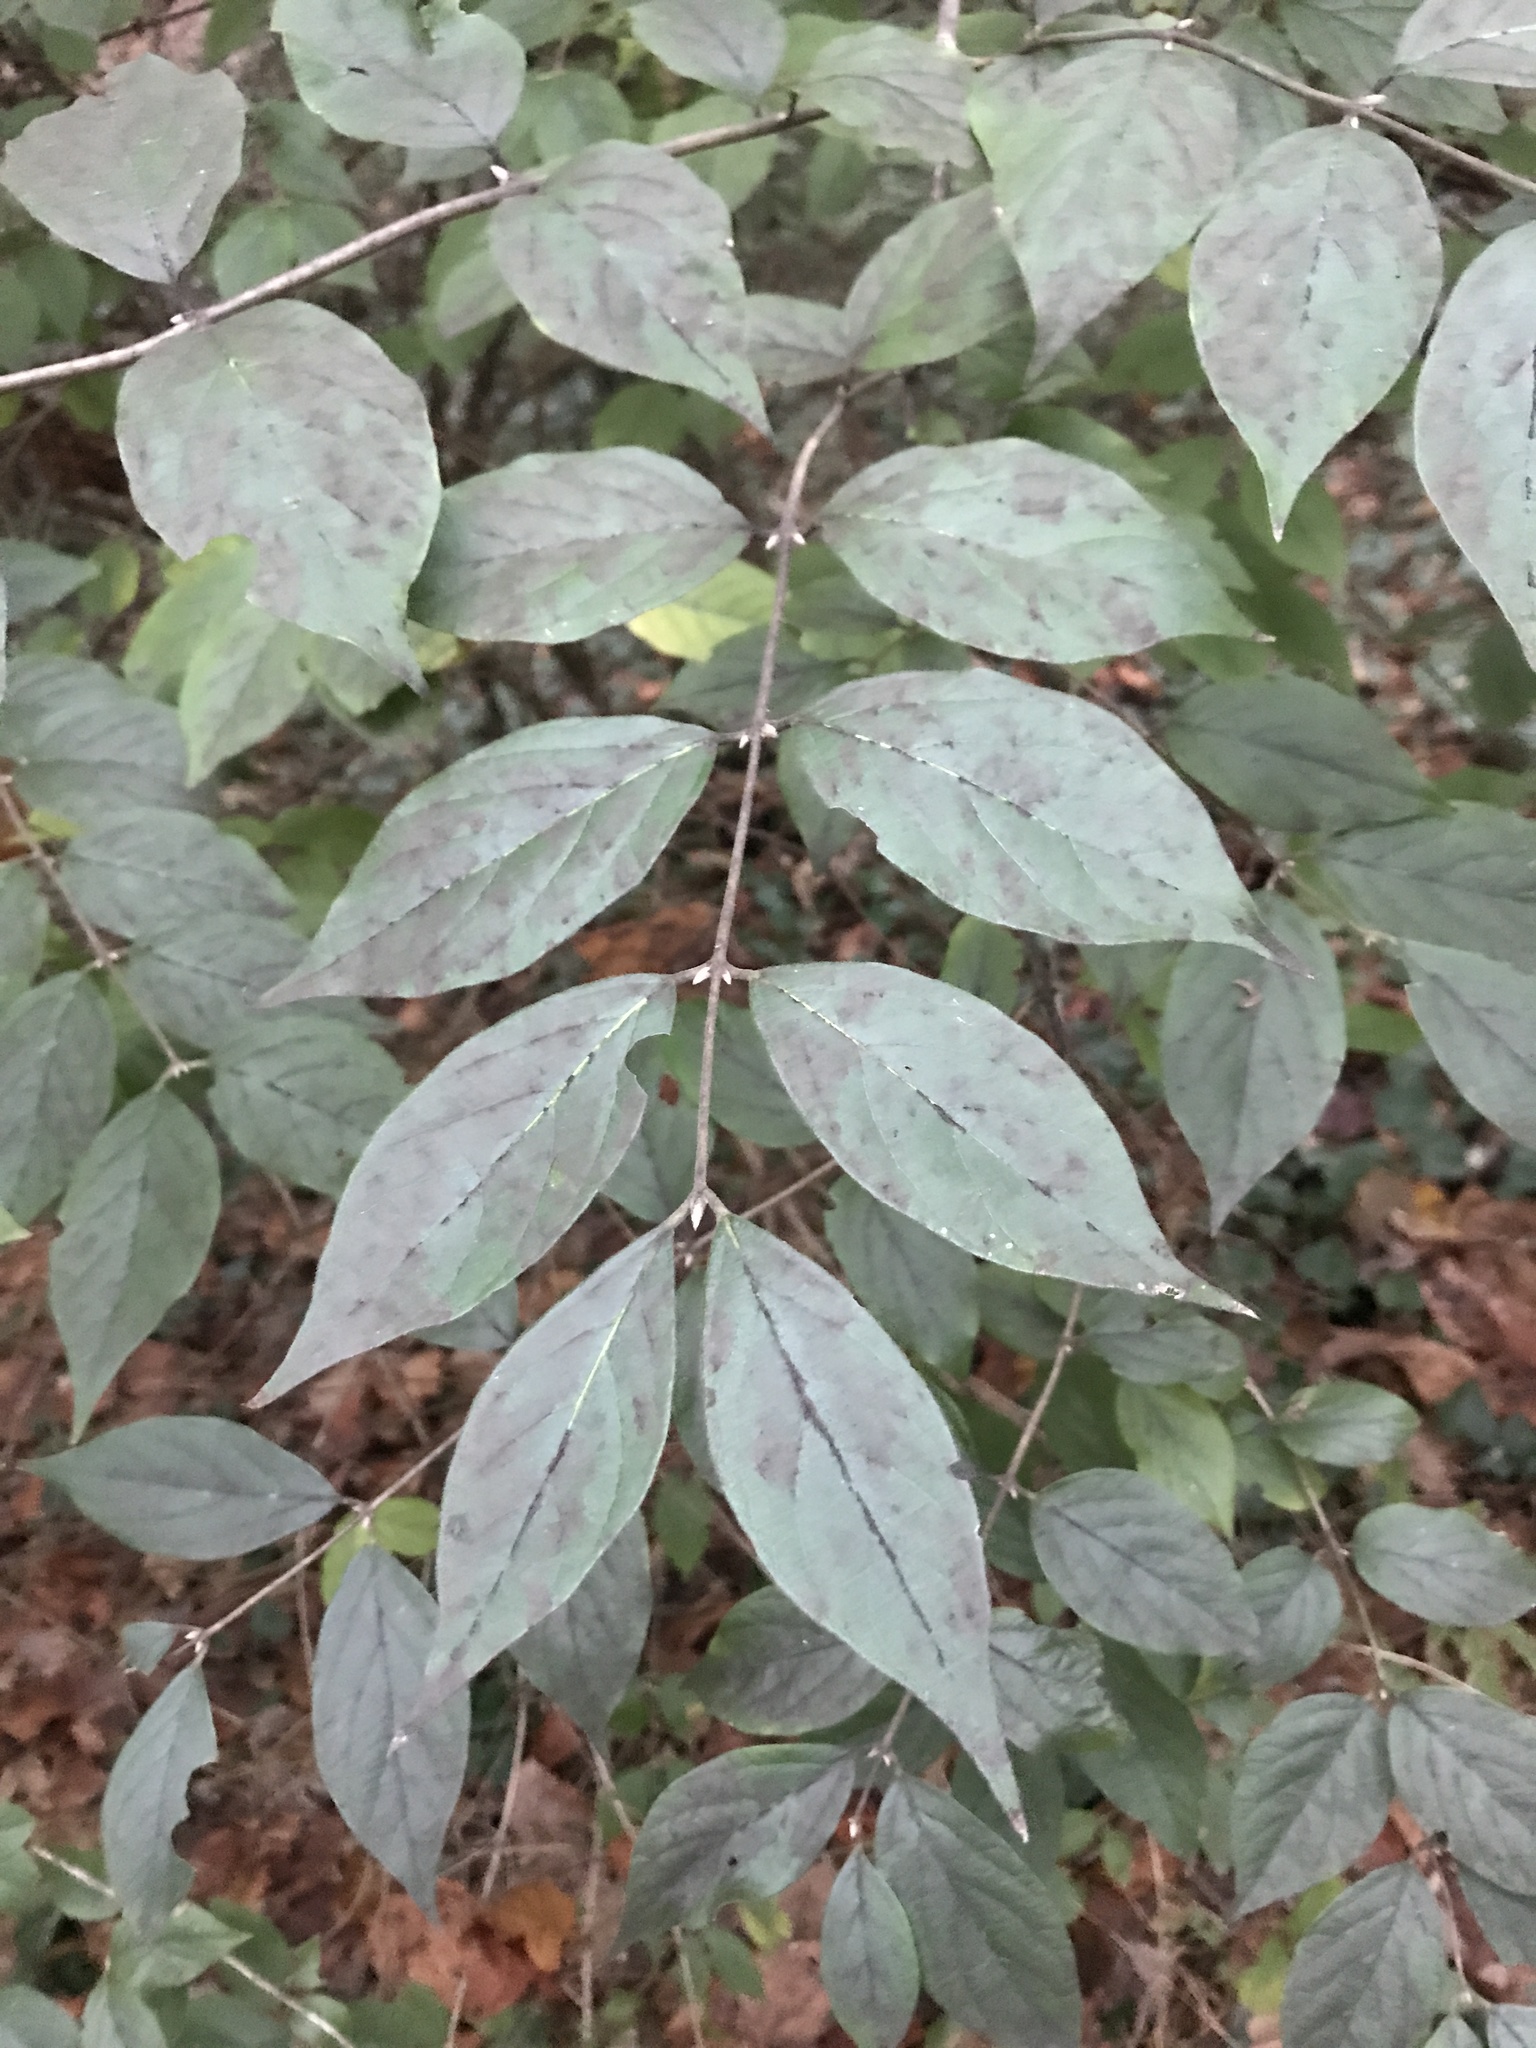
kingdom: Plantae
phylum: Tracheophyta
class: Magnoliopsida
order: Dipsacales
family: Caprifoliaceae
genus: Lonicera
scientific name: Lonicera maackii
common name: Amur honeysuckle
